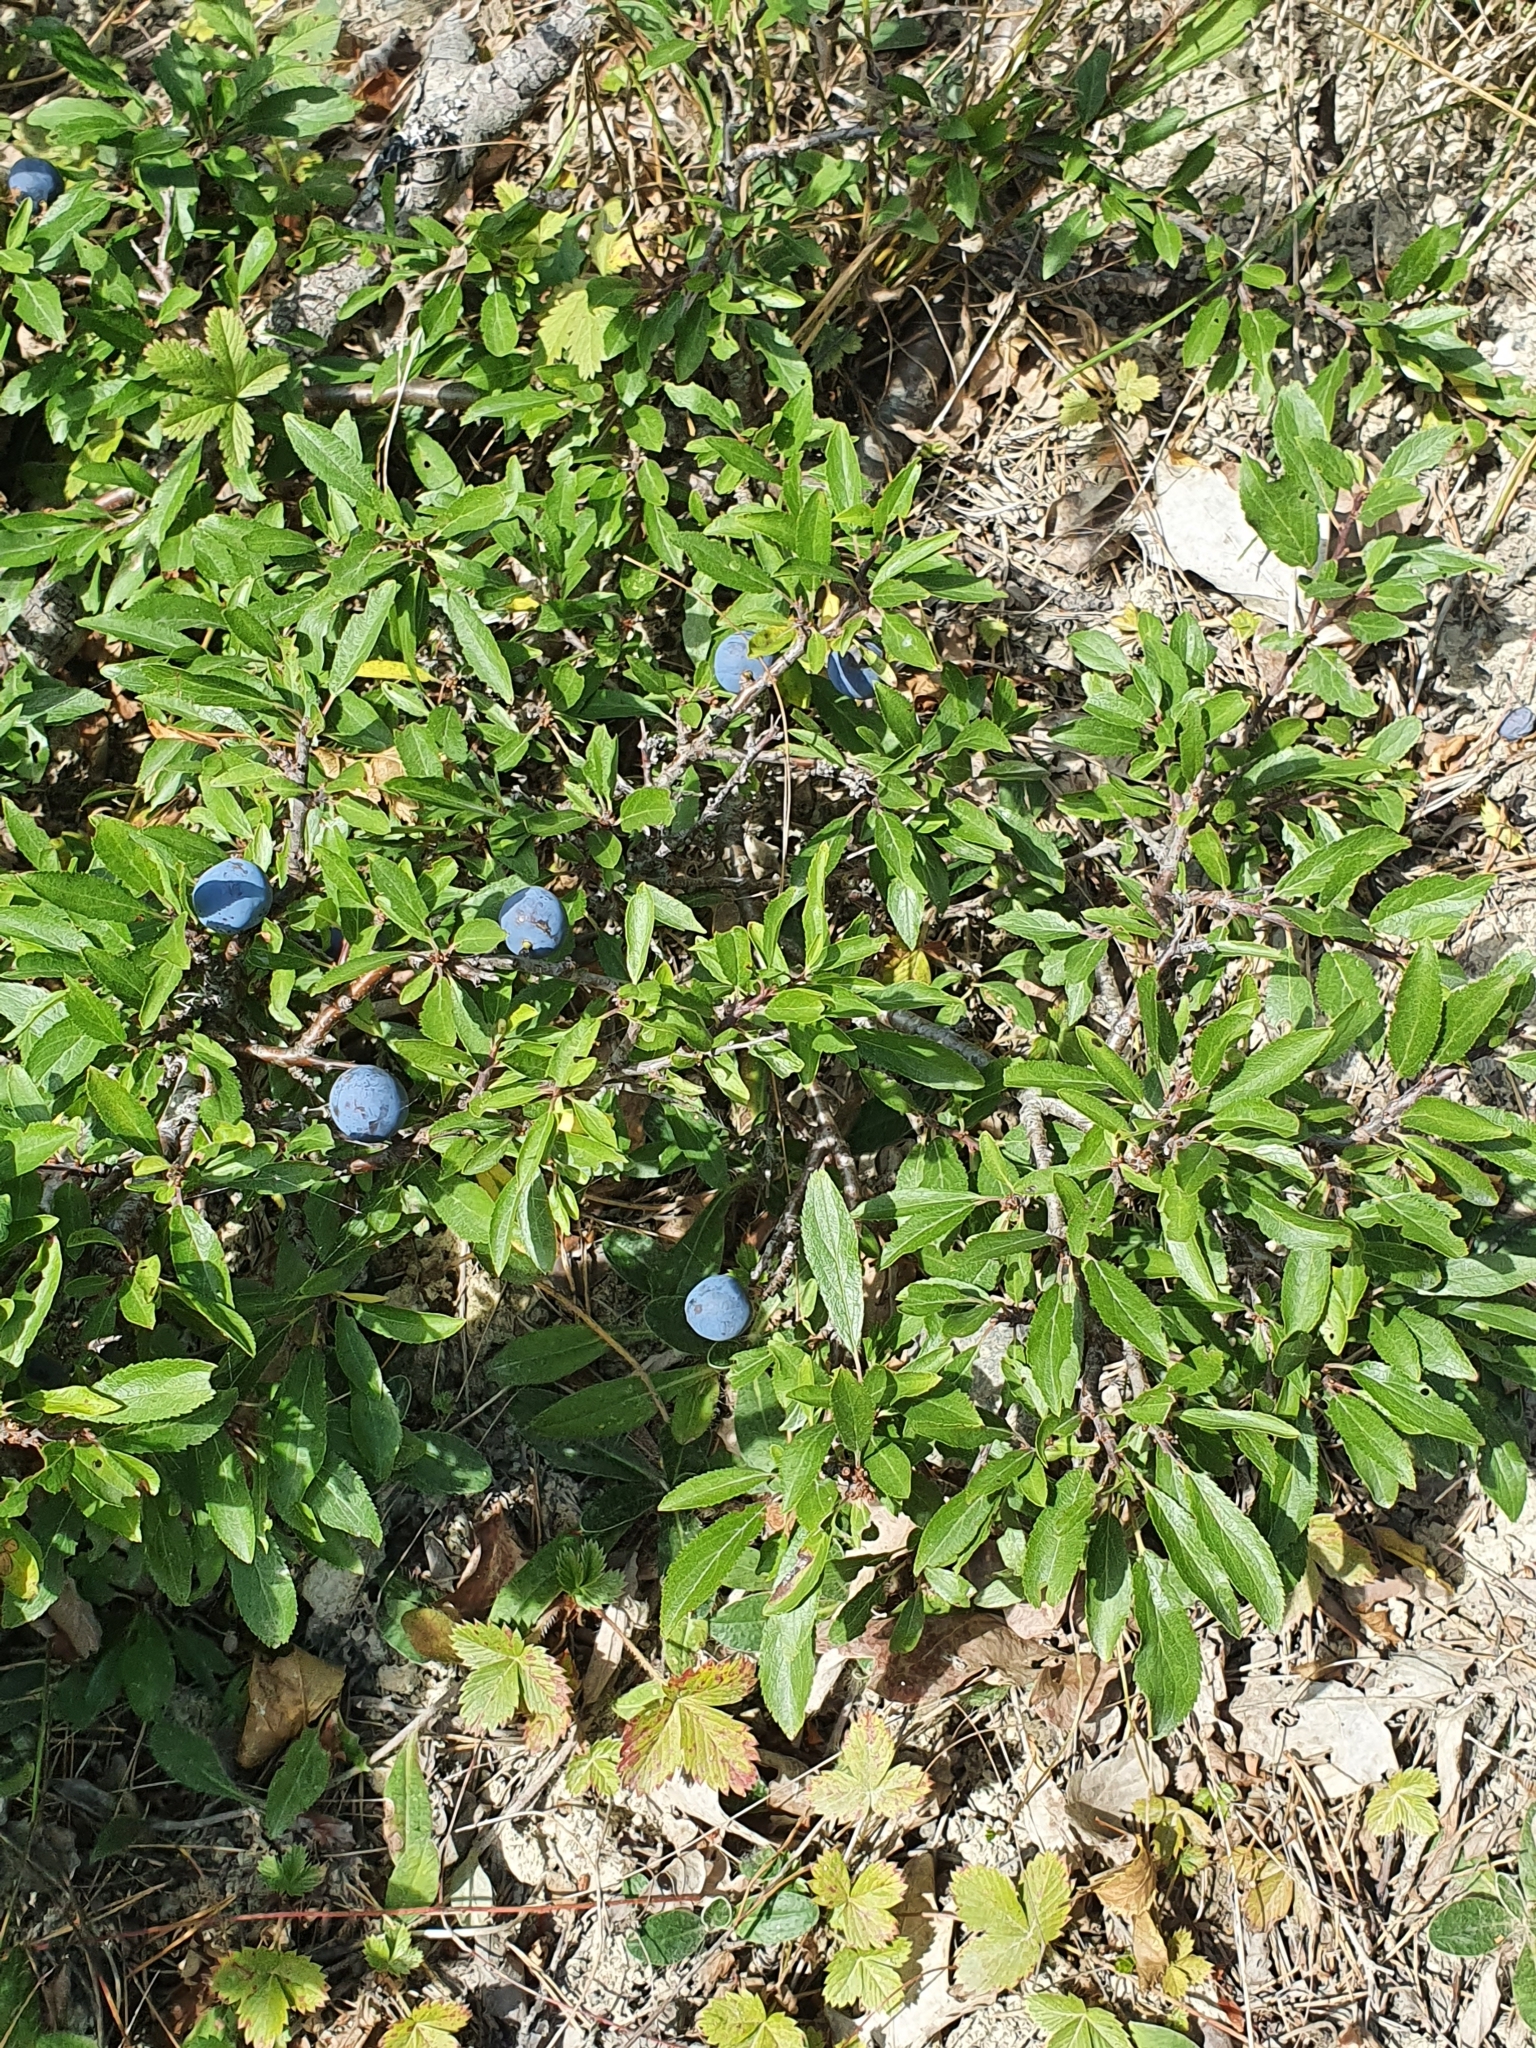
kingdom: Plantae
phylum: Tracheophyta
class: Magnoliopsida
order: Rosales
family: Rosaceae
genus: Prunus
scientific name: Prunus spinosa
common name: Blackthorn
